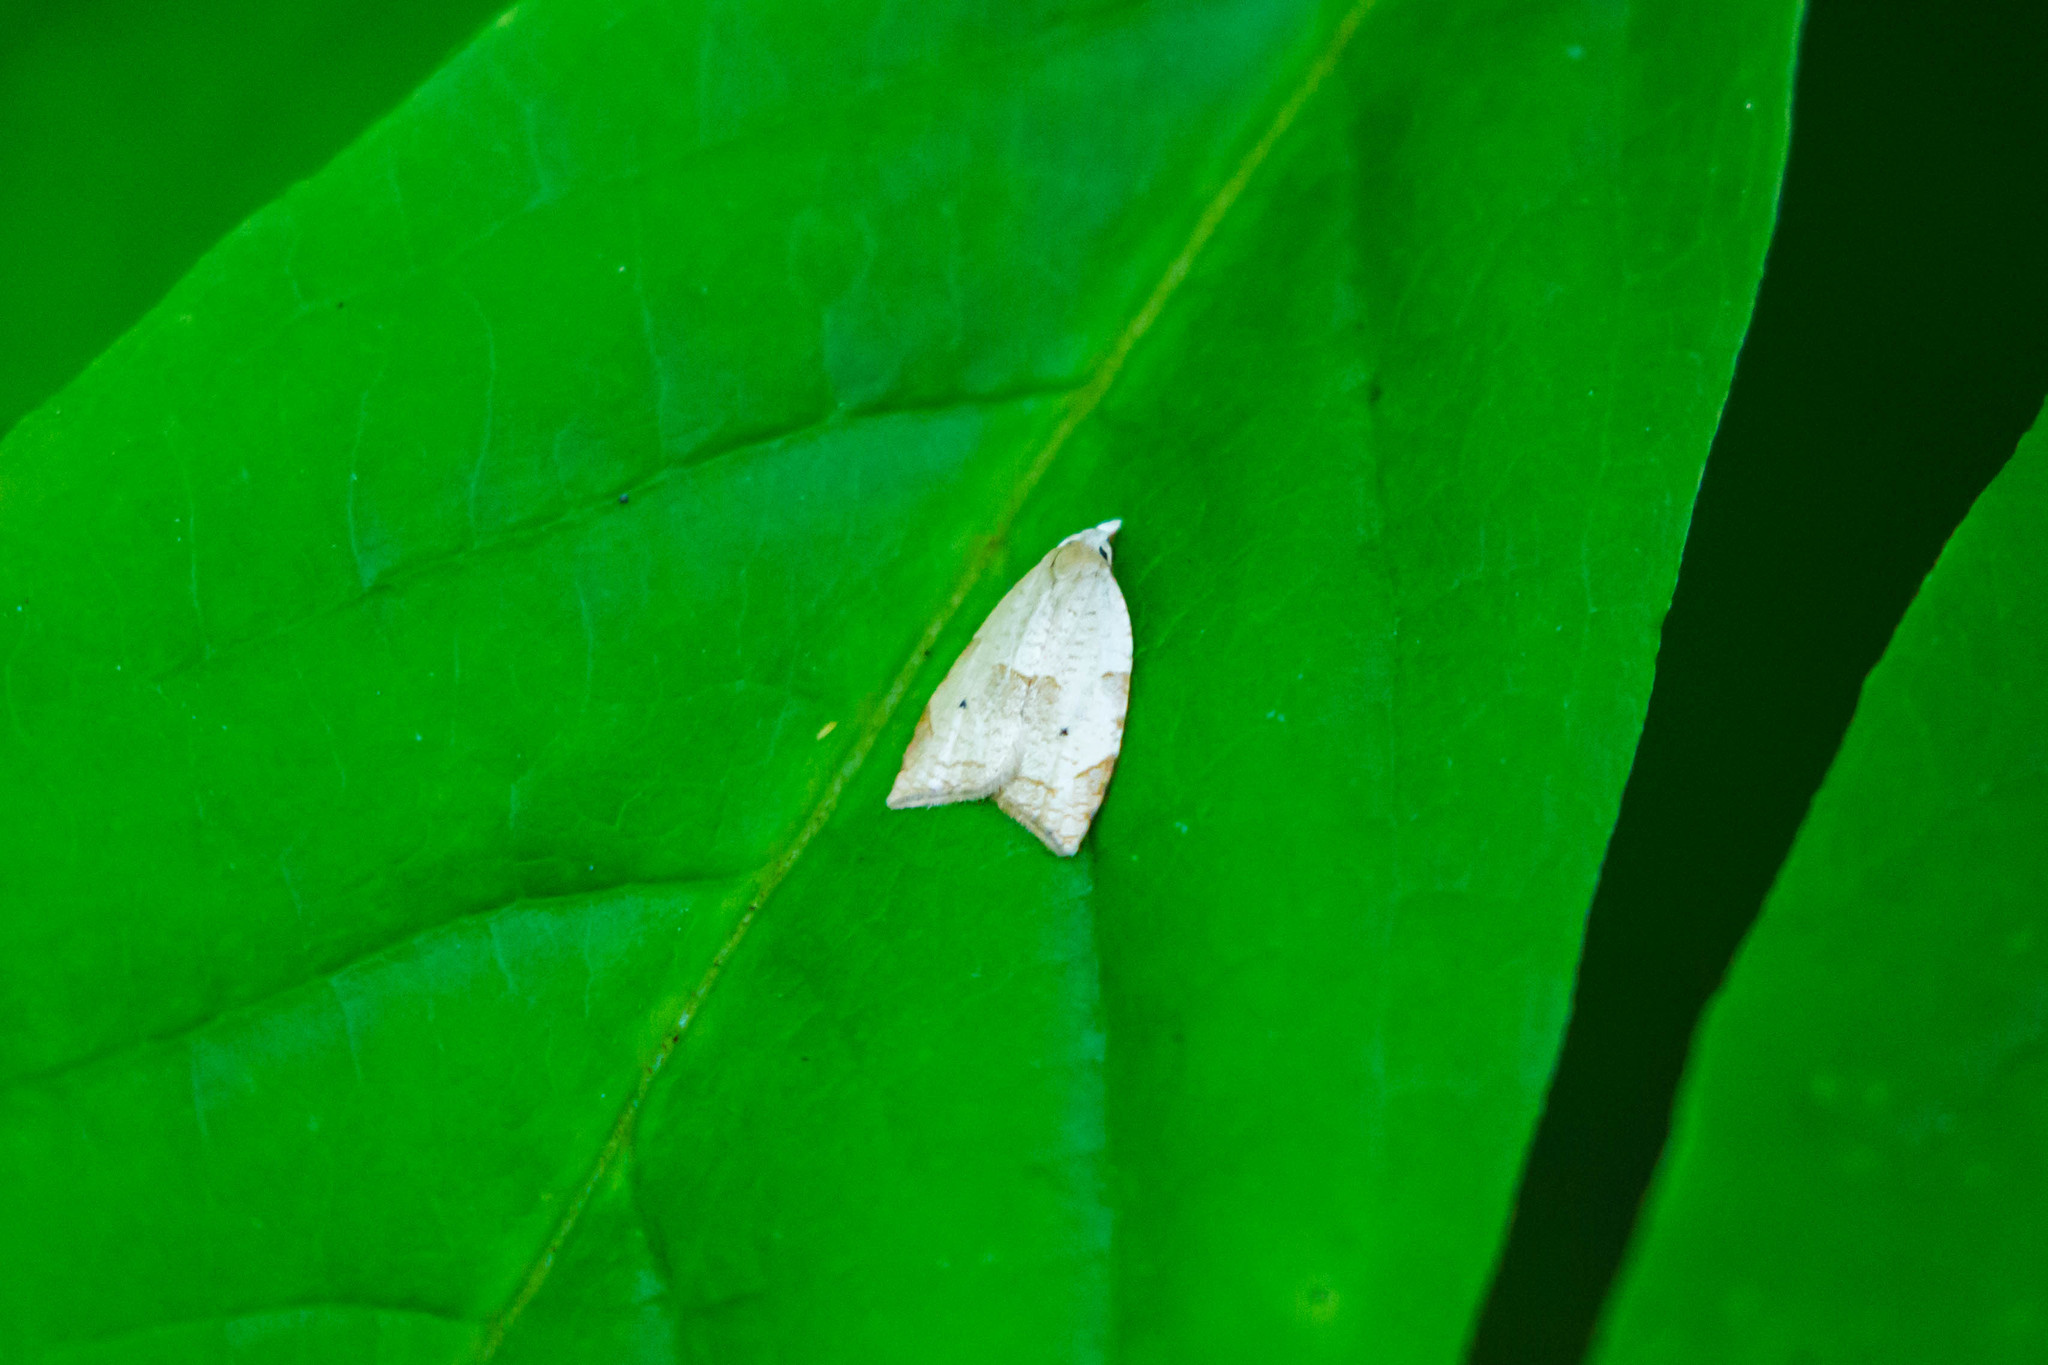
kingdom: Animalia
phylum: Arthropoda
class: Insecta
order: Lepidoptera
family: Tortricidae
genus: Coelostathma
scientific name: Coelostathma discopunctana
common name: Batman moth
